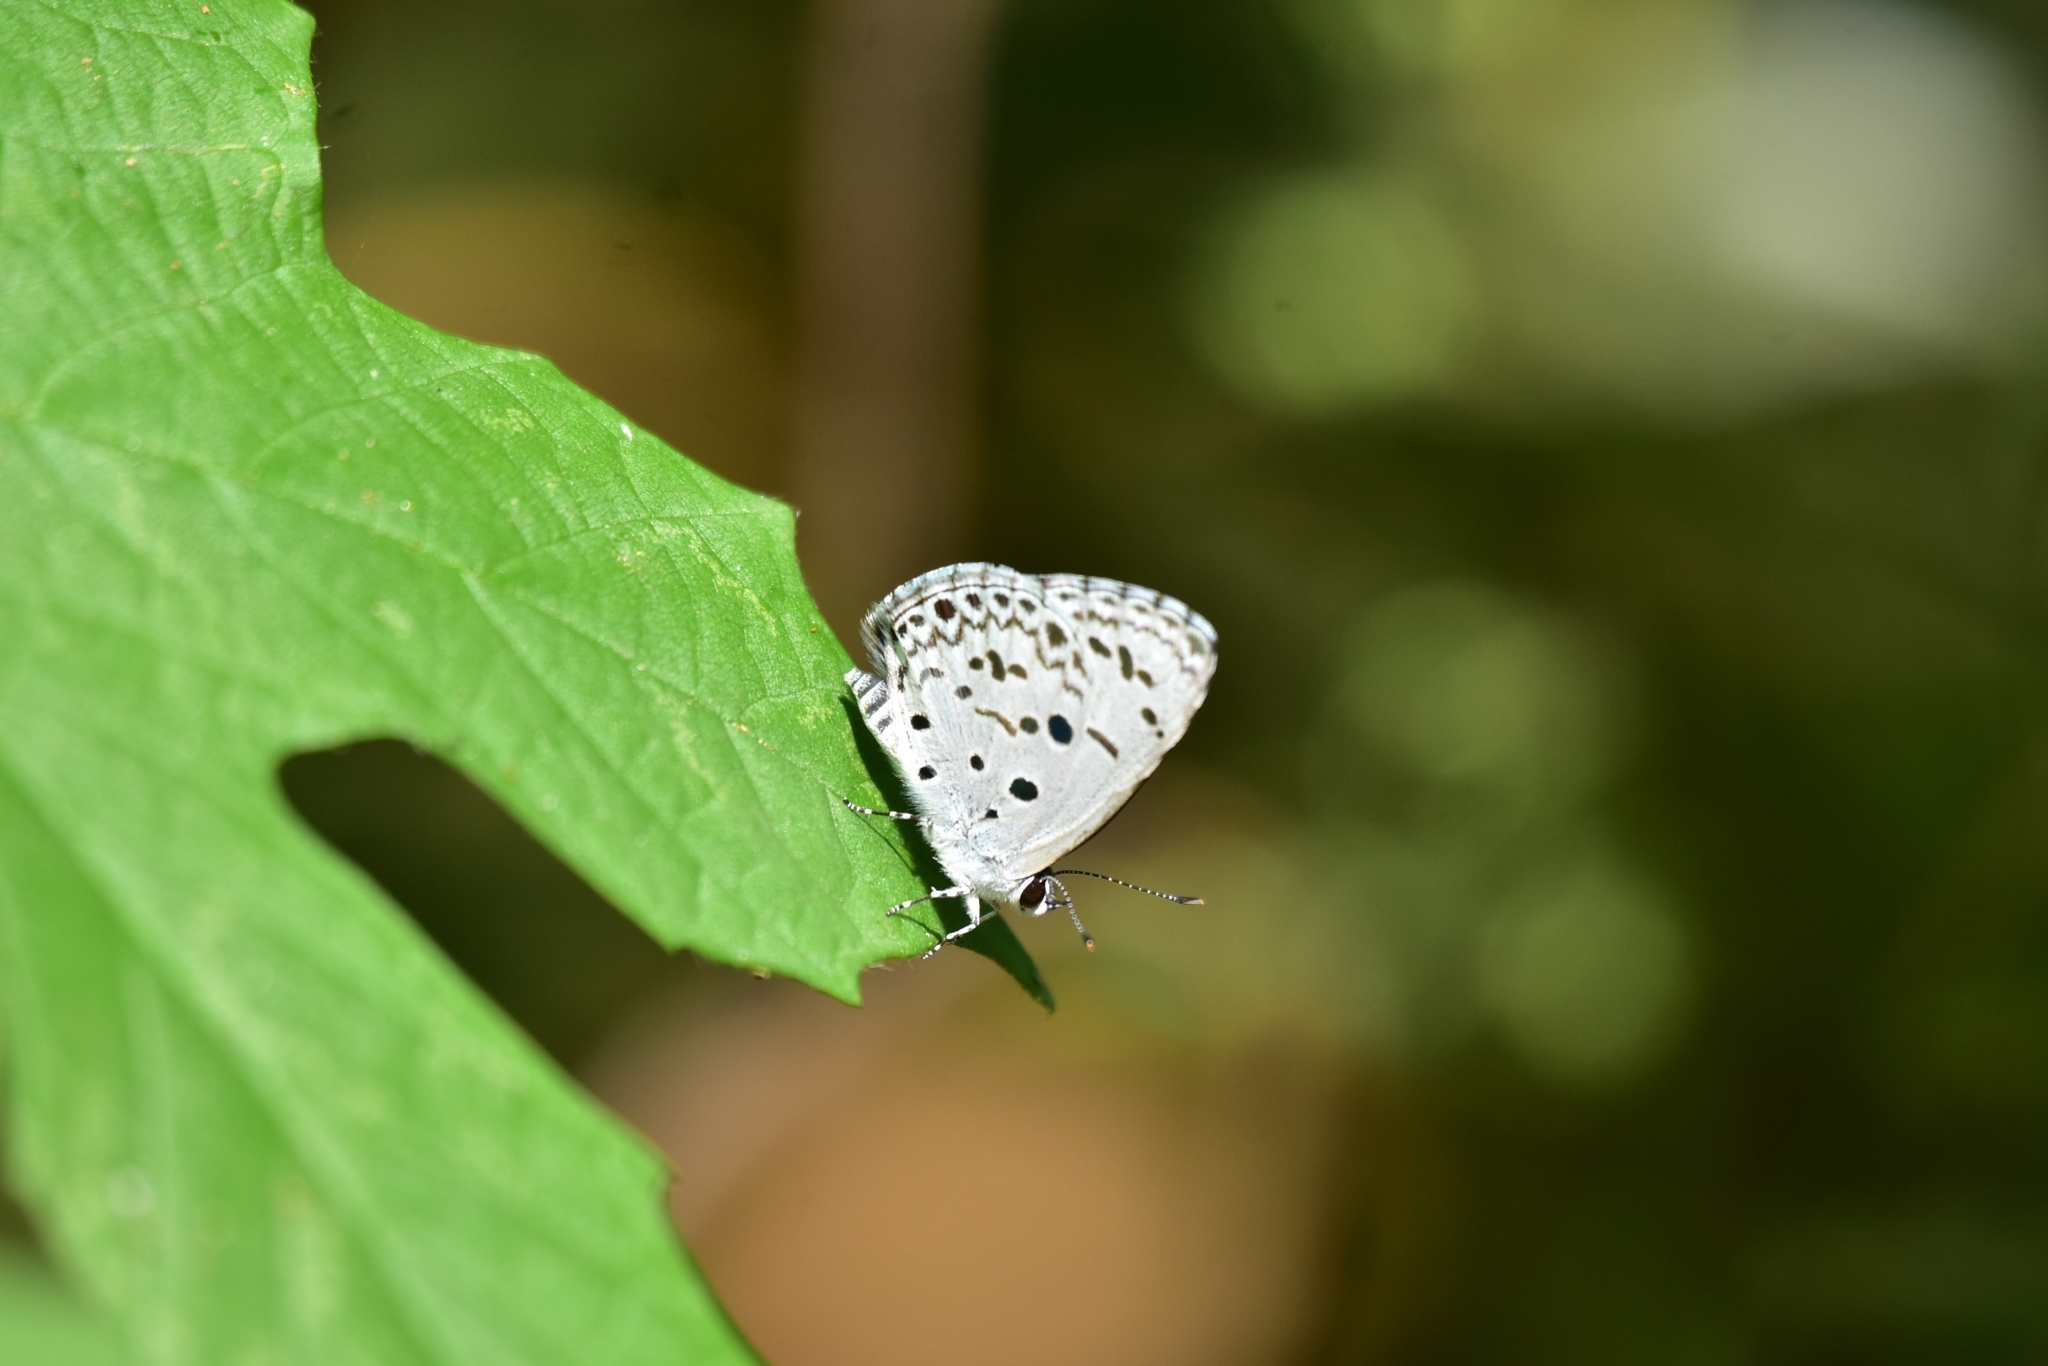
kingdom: Animalia
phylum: Arthropoda
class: Insecta
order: Lepidoptera
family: Lycaenidae
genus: Acytolepis
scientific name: Acytolepis puspa
